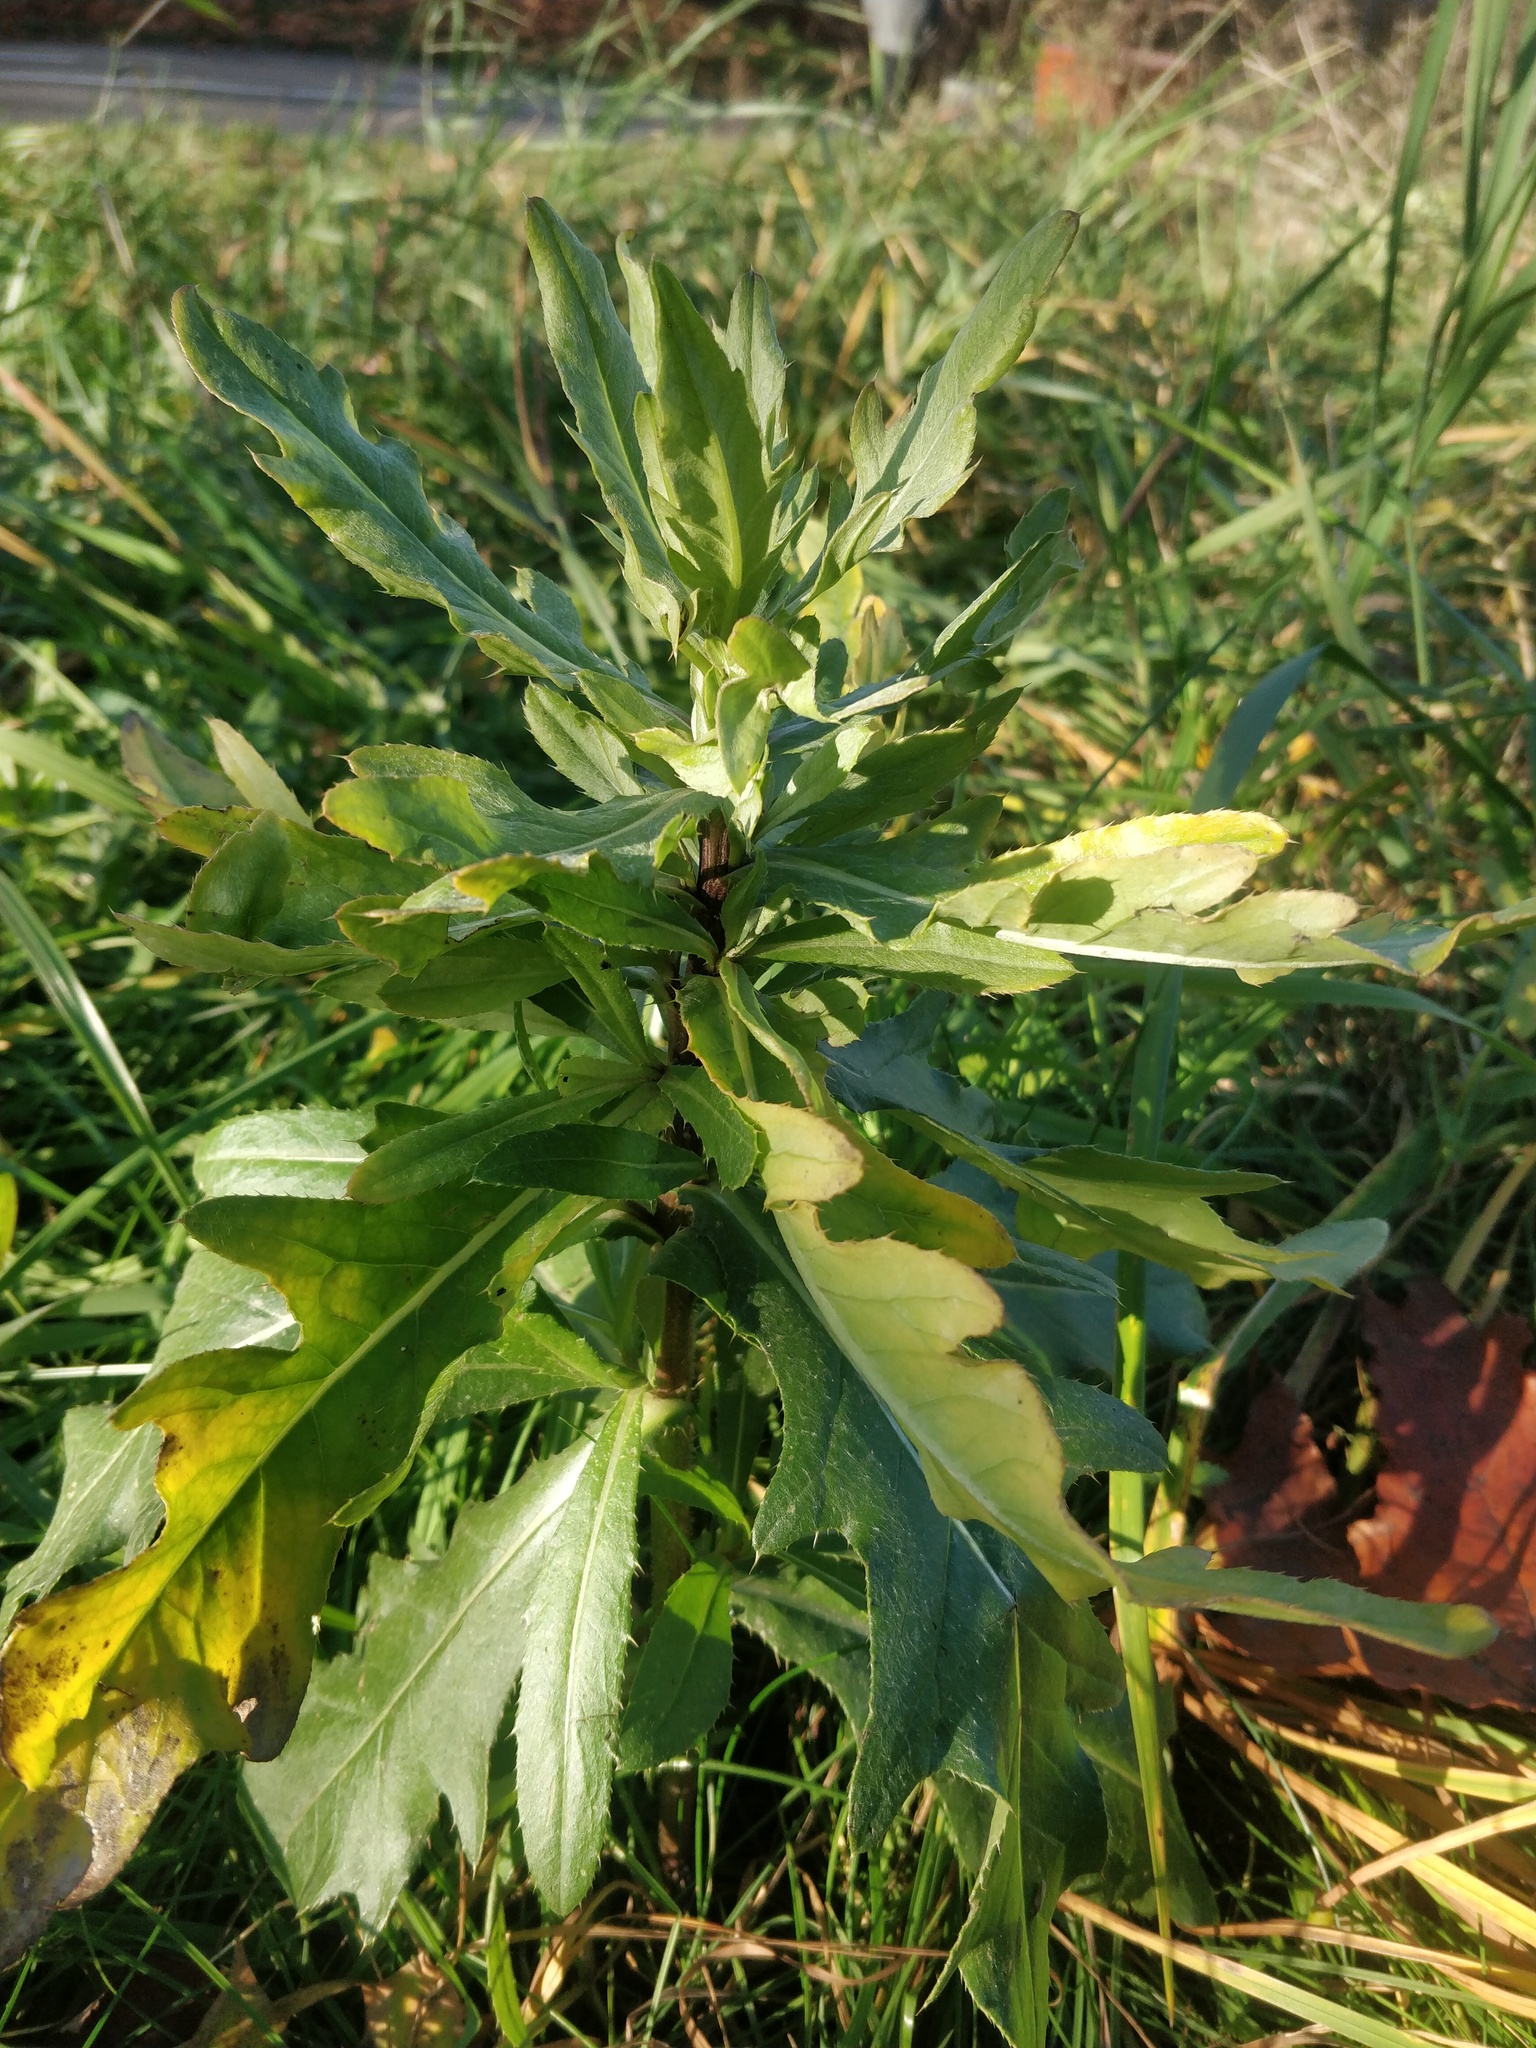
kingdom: Plantae
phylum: Tracheophyta
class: Magnoliopsida
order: Asterales
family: Asteraceae
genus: Cirsium
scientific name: Cirsium arvense
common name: Creeping thistle
